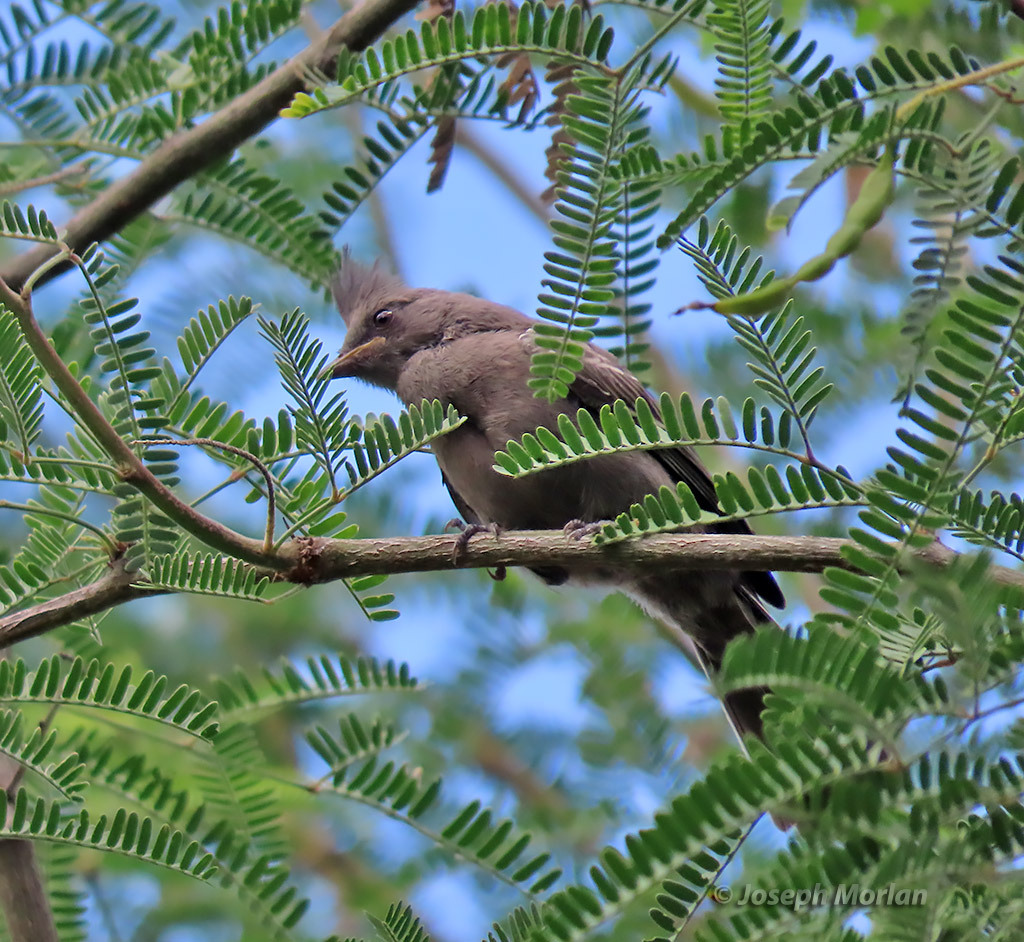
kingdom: Animalia
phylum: Chordata
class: Aves
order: Passeriformes
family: Ptilogonatidae
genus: Phainopepla
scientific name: Phainopepla nitens
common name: Phainopepla
